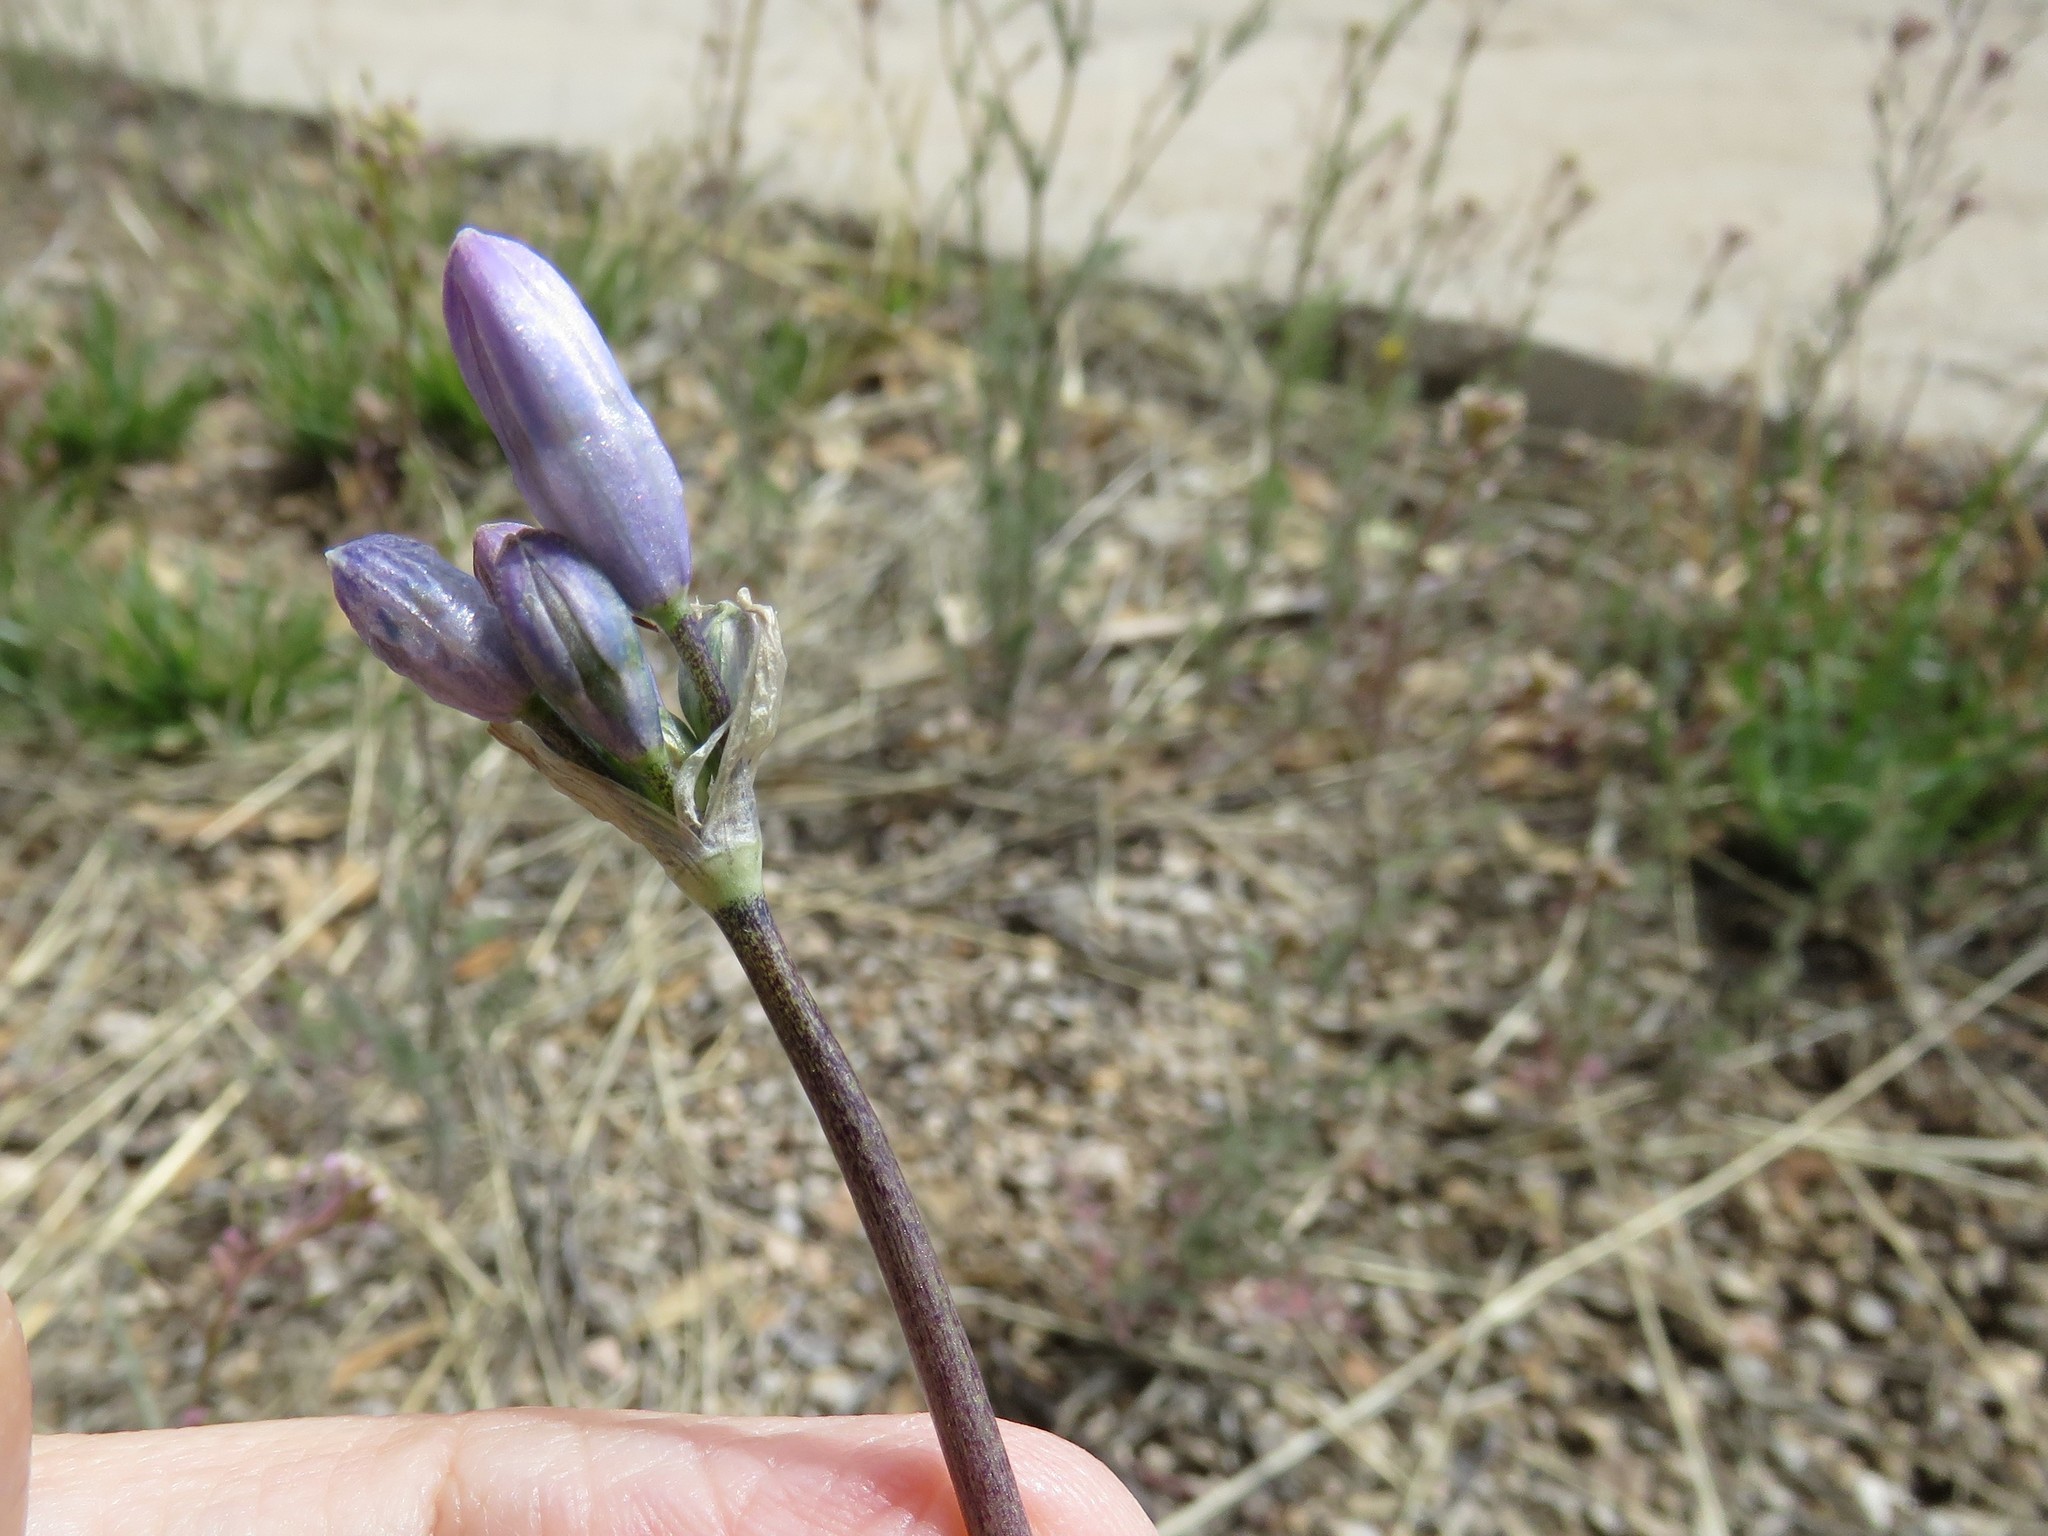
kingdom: Plantae
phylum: Tracheophyta
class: Liliopsida
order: Asparagales
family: Asparagaceae
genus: Dipterostemon
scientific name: Dipterostemon capitatus
